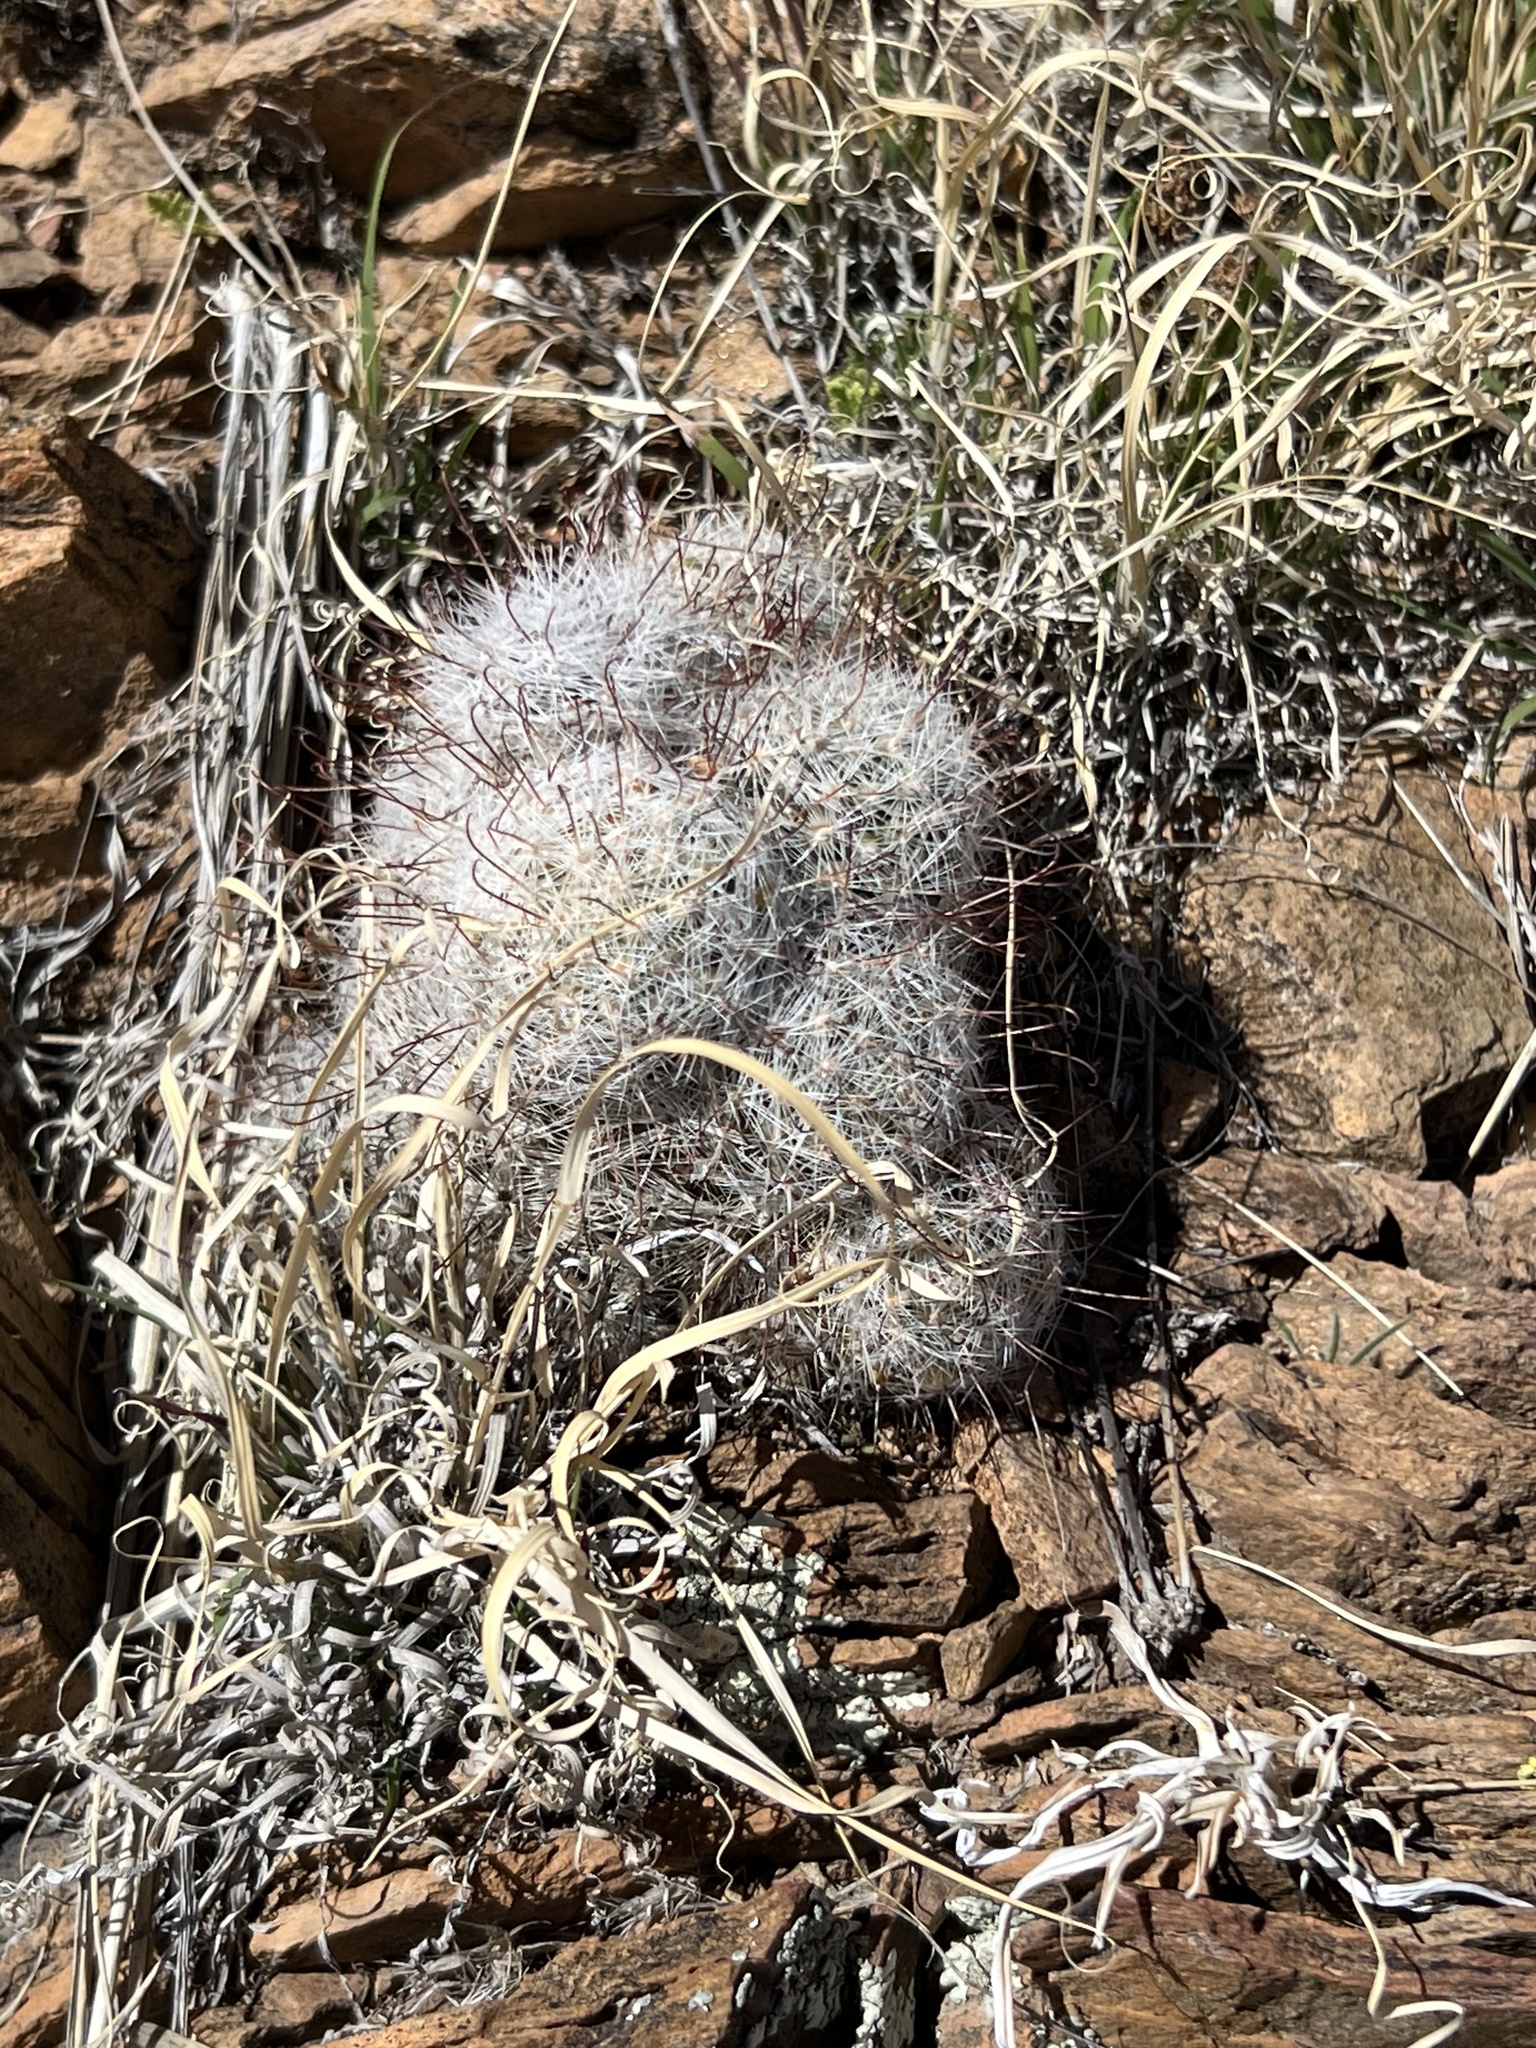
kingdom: Plantae
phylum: Tracheophyta
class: Magnoliopsida
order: Caryophyllales
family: Cactaceae
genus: Cochemiea
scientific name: Cochemiea grahamii
